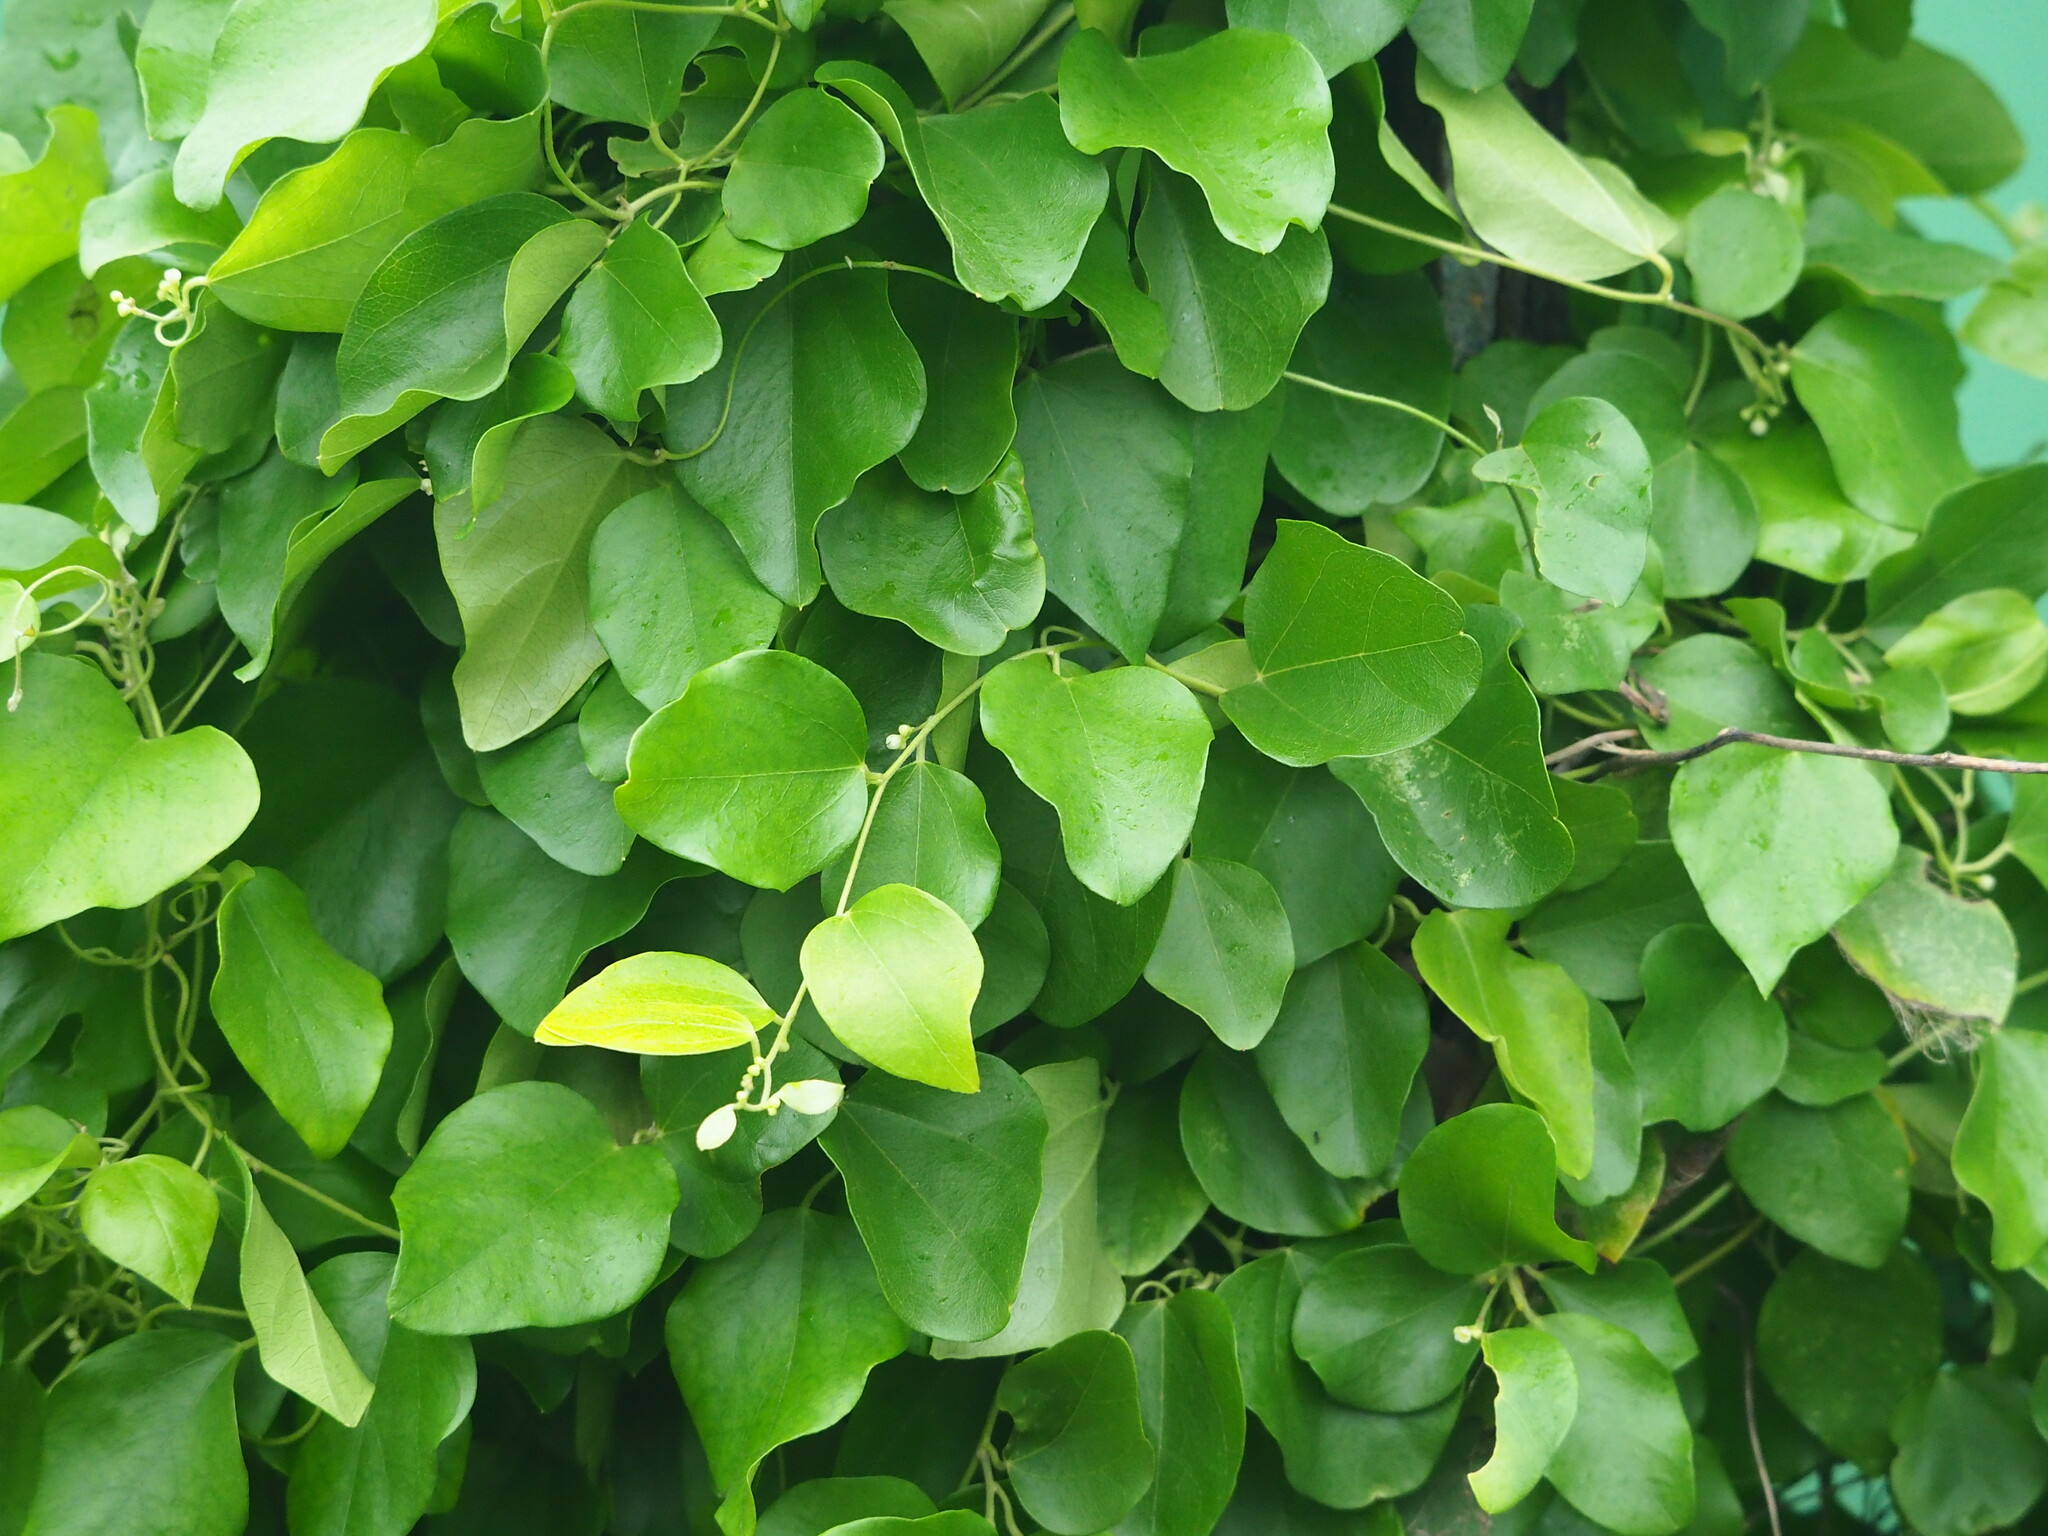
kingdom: Plantae
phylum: Tracheophyta
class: Magnoliopsida
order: Ranunculales
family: Menispermaceae
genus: Cocculus
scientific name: Cocculus orbiculatus
